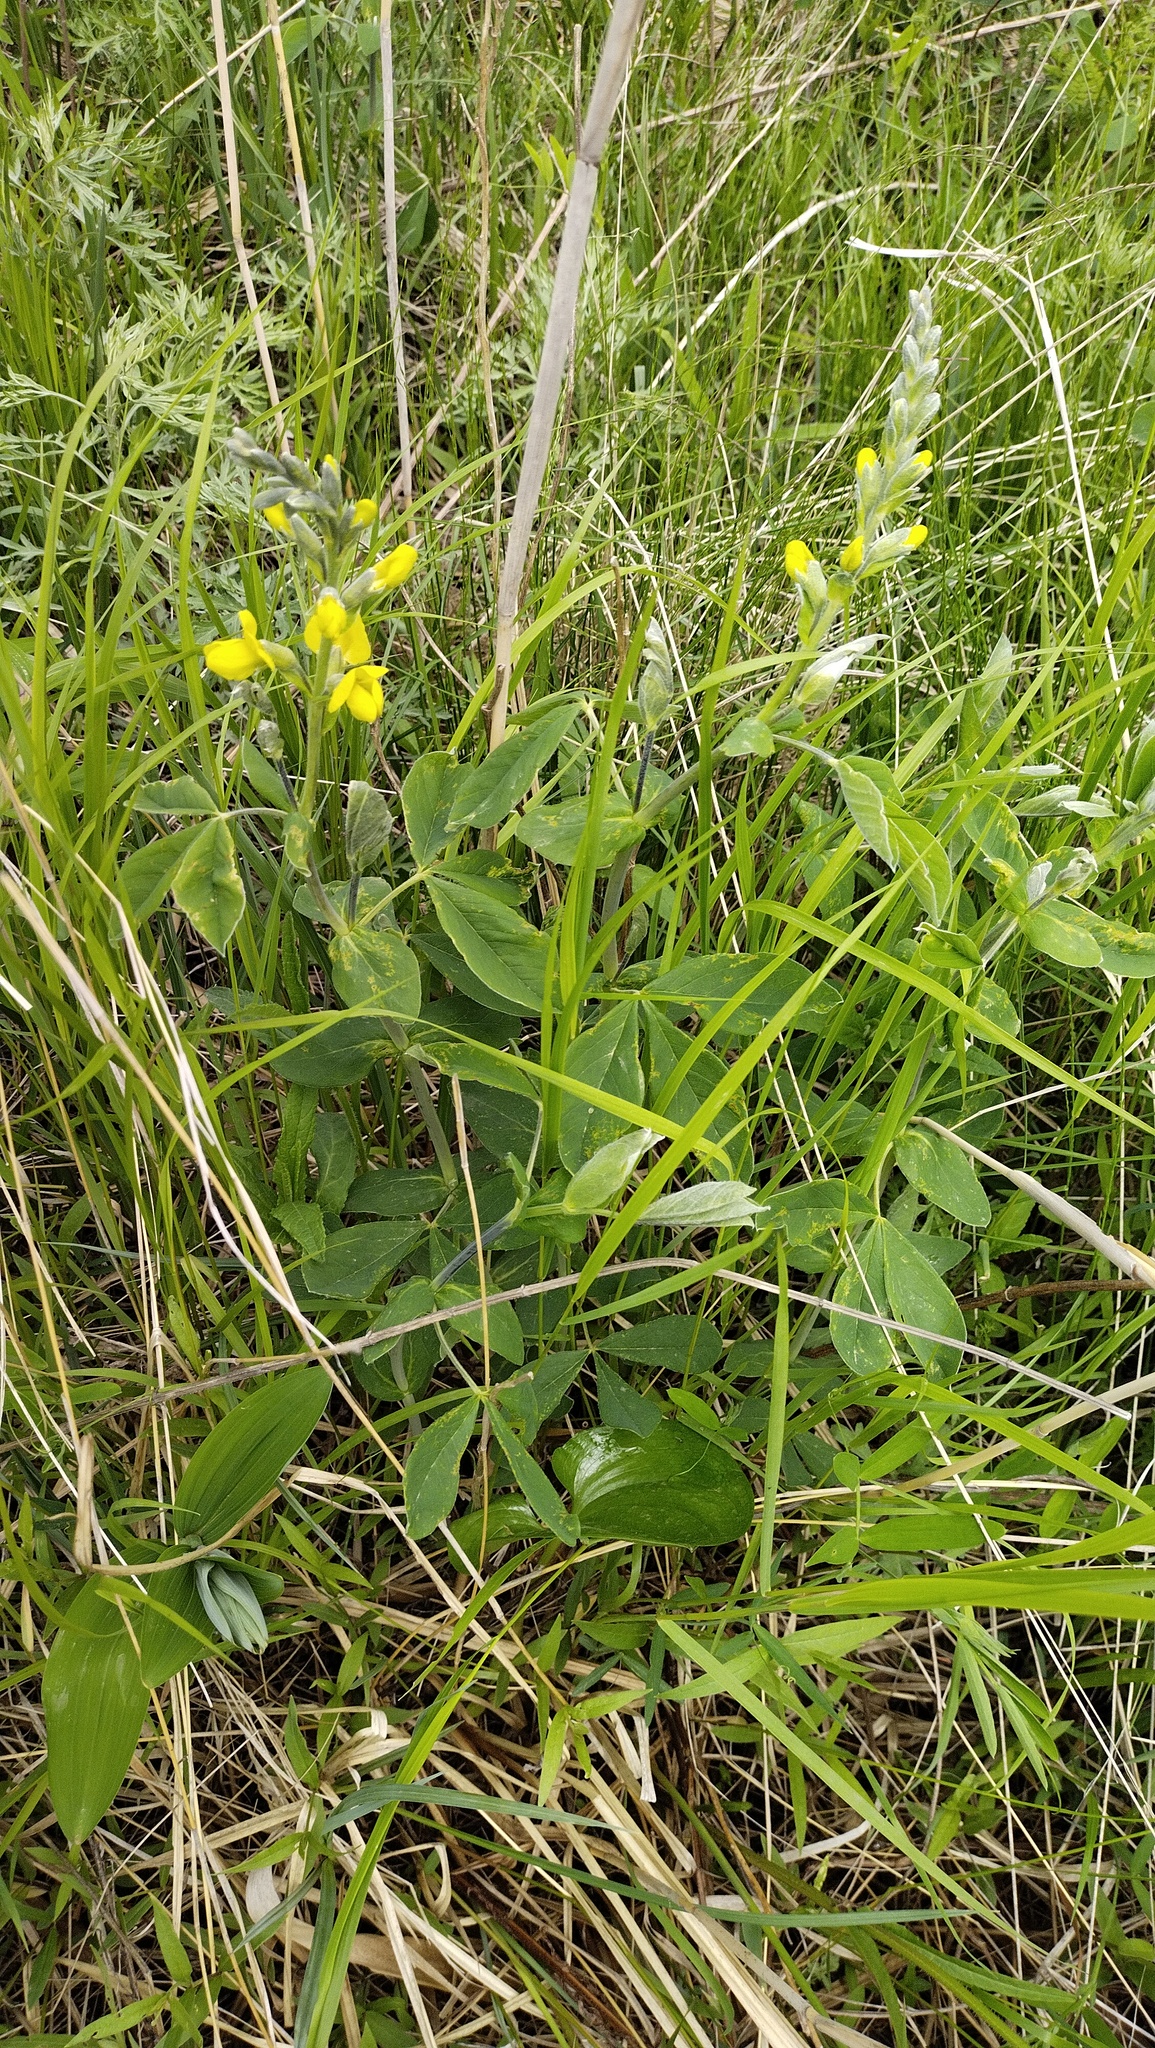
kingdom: Plantae
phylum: Tracheophyta
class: Magnoliopsida
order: Fabales
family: Fabaceae
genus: Thermopsis
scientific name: Thermopsis lanceolata
